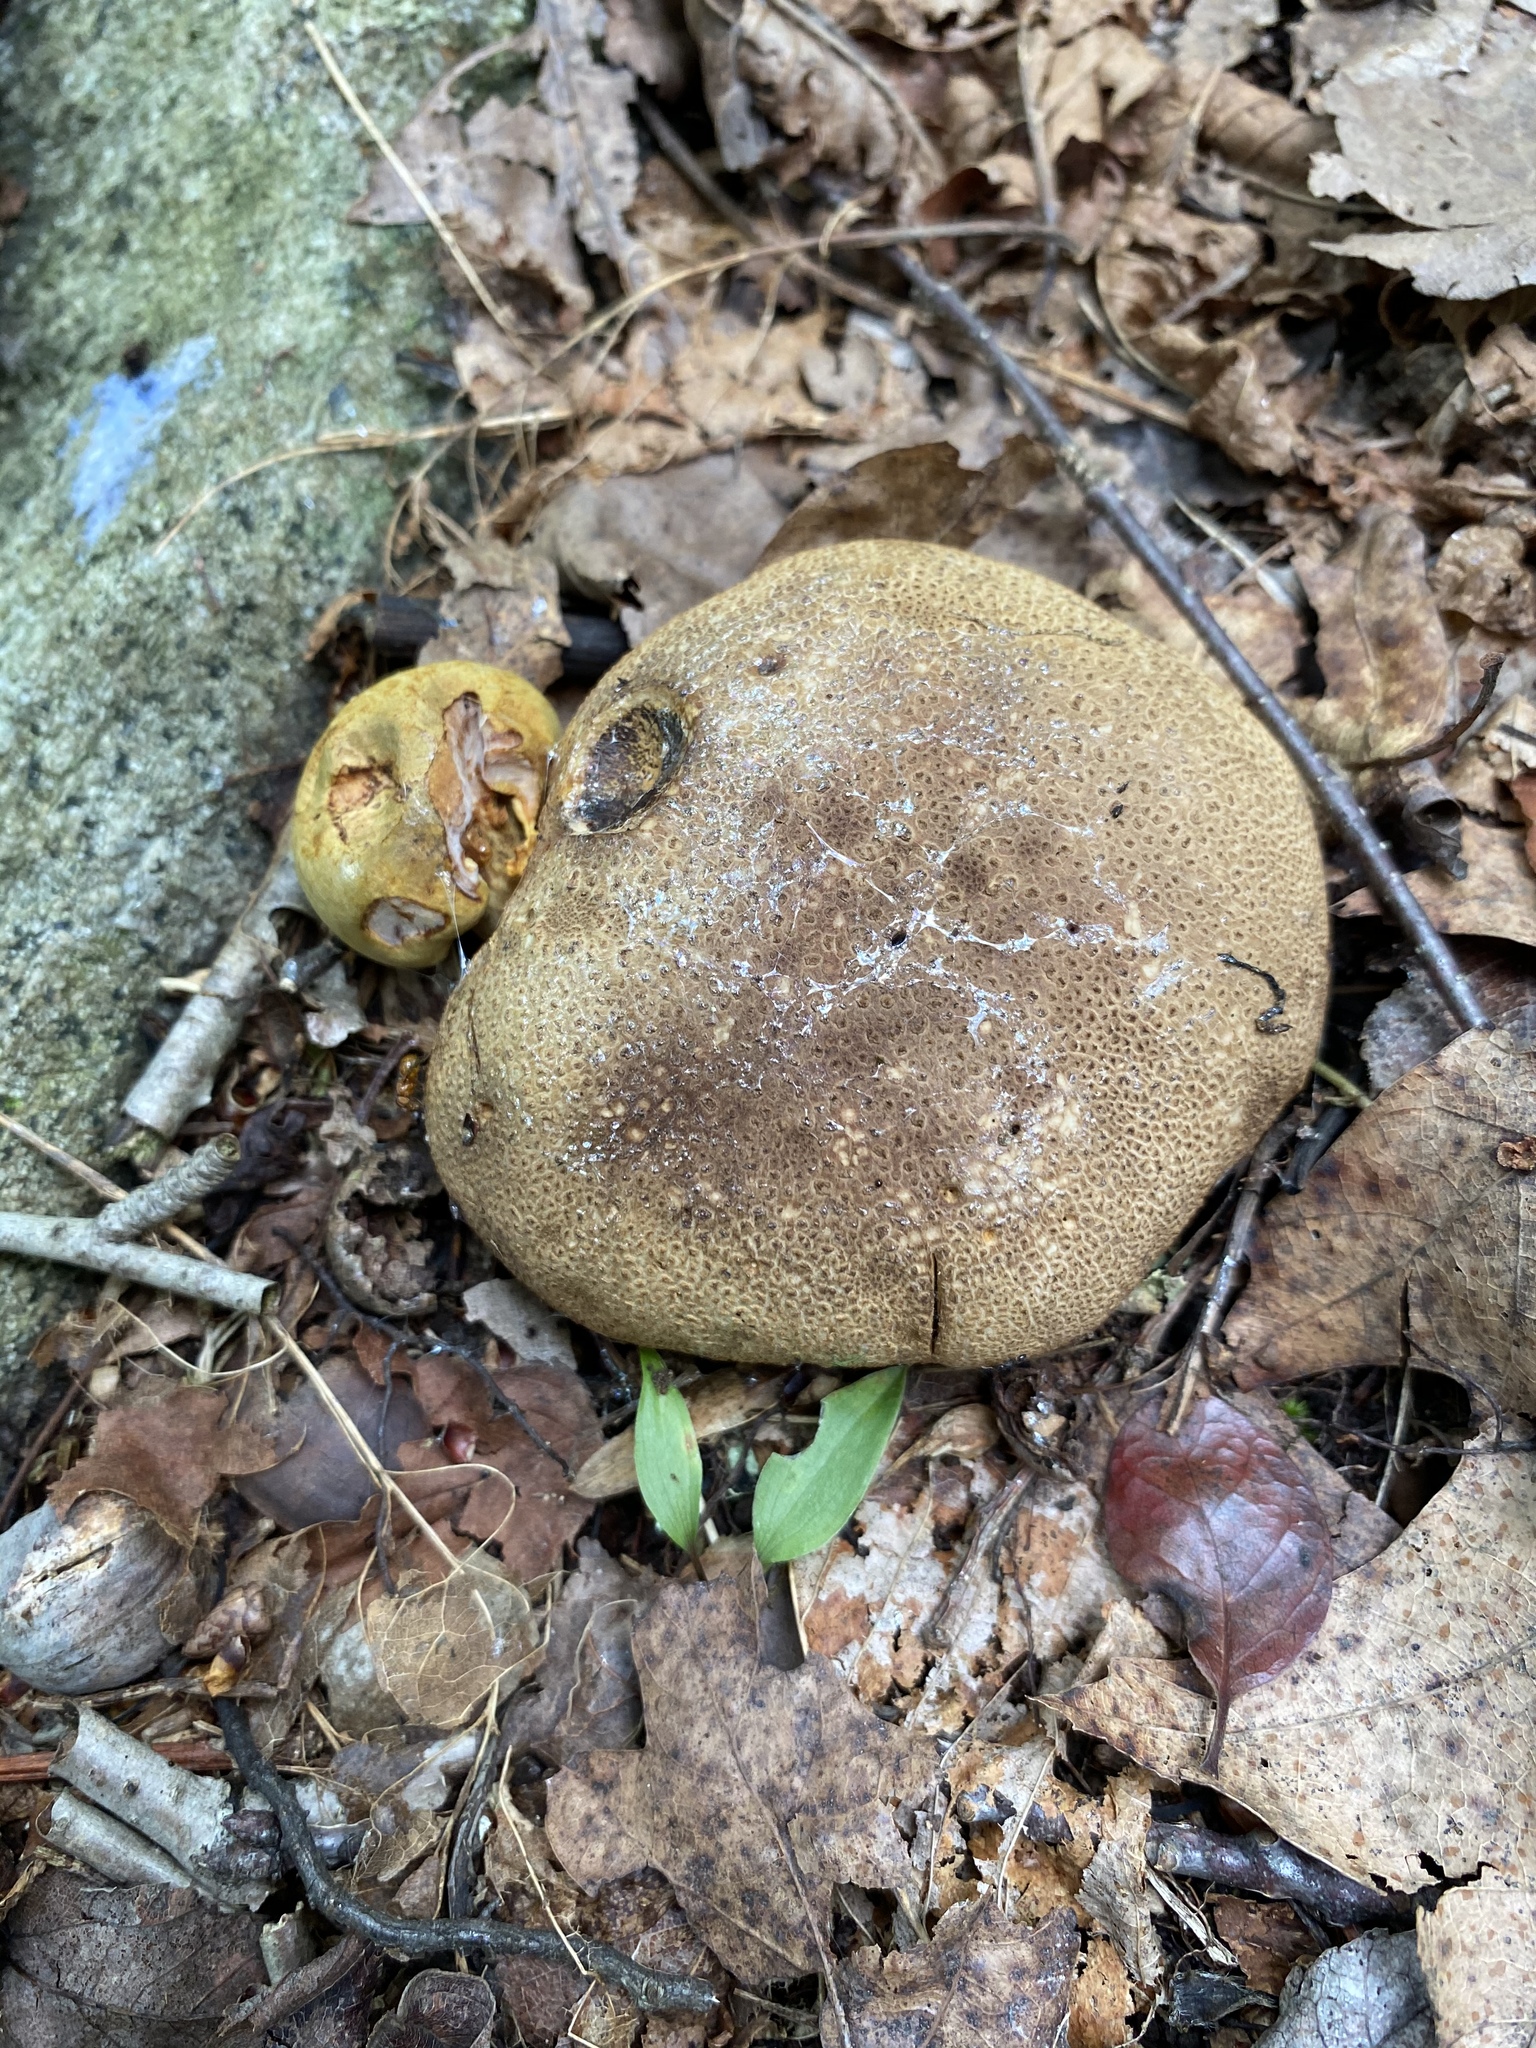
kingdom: Fungi
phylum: Basidiomycota
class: Agaricomycetes
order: Boletales
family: Boletaceae
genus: Pseudoboletus
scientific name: Pseudoboletus parasiticus
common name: Parasitic bolete
